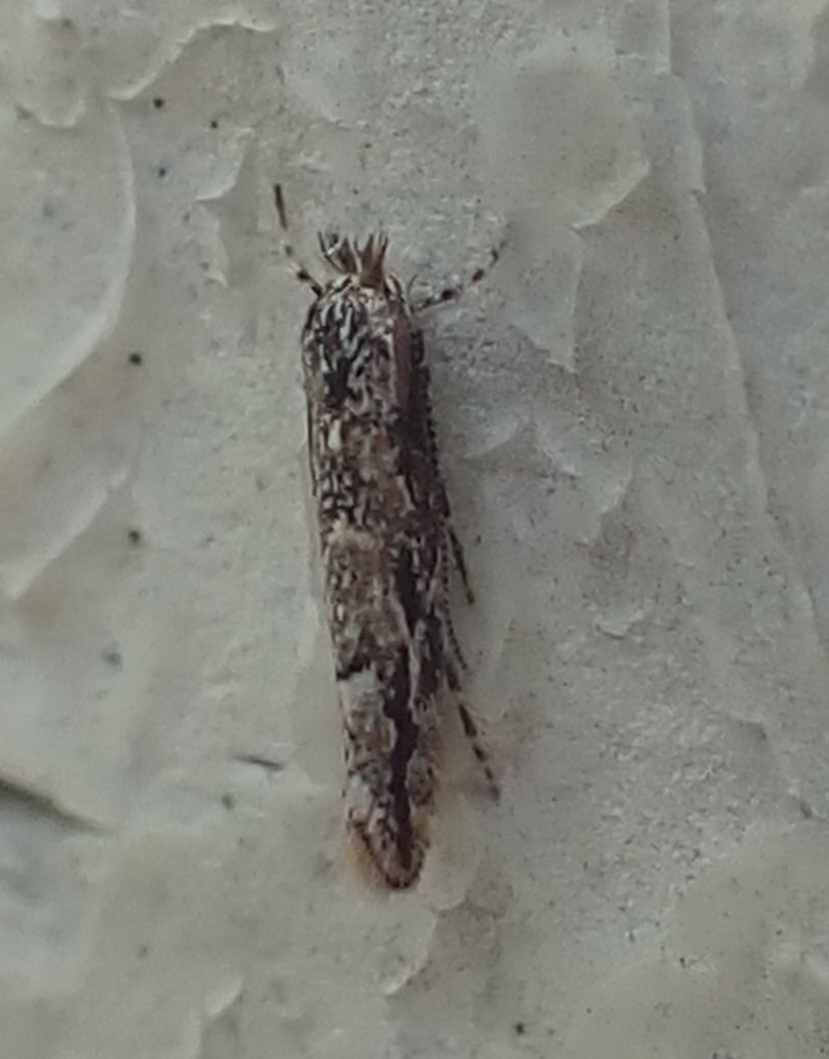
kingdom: Animalia
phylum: Arthropoda
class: Insecta
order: Lepidoptera
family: Gracillariidae
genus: Phyllonorycter
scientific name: Phyllonorycter issikii
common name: Linden midget
